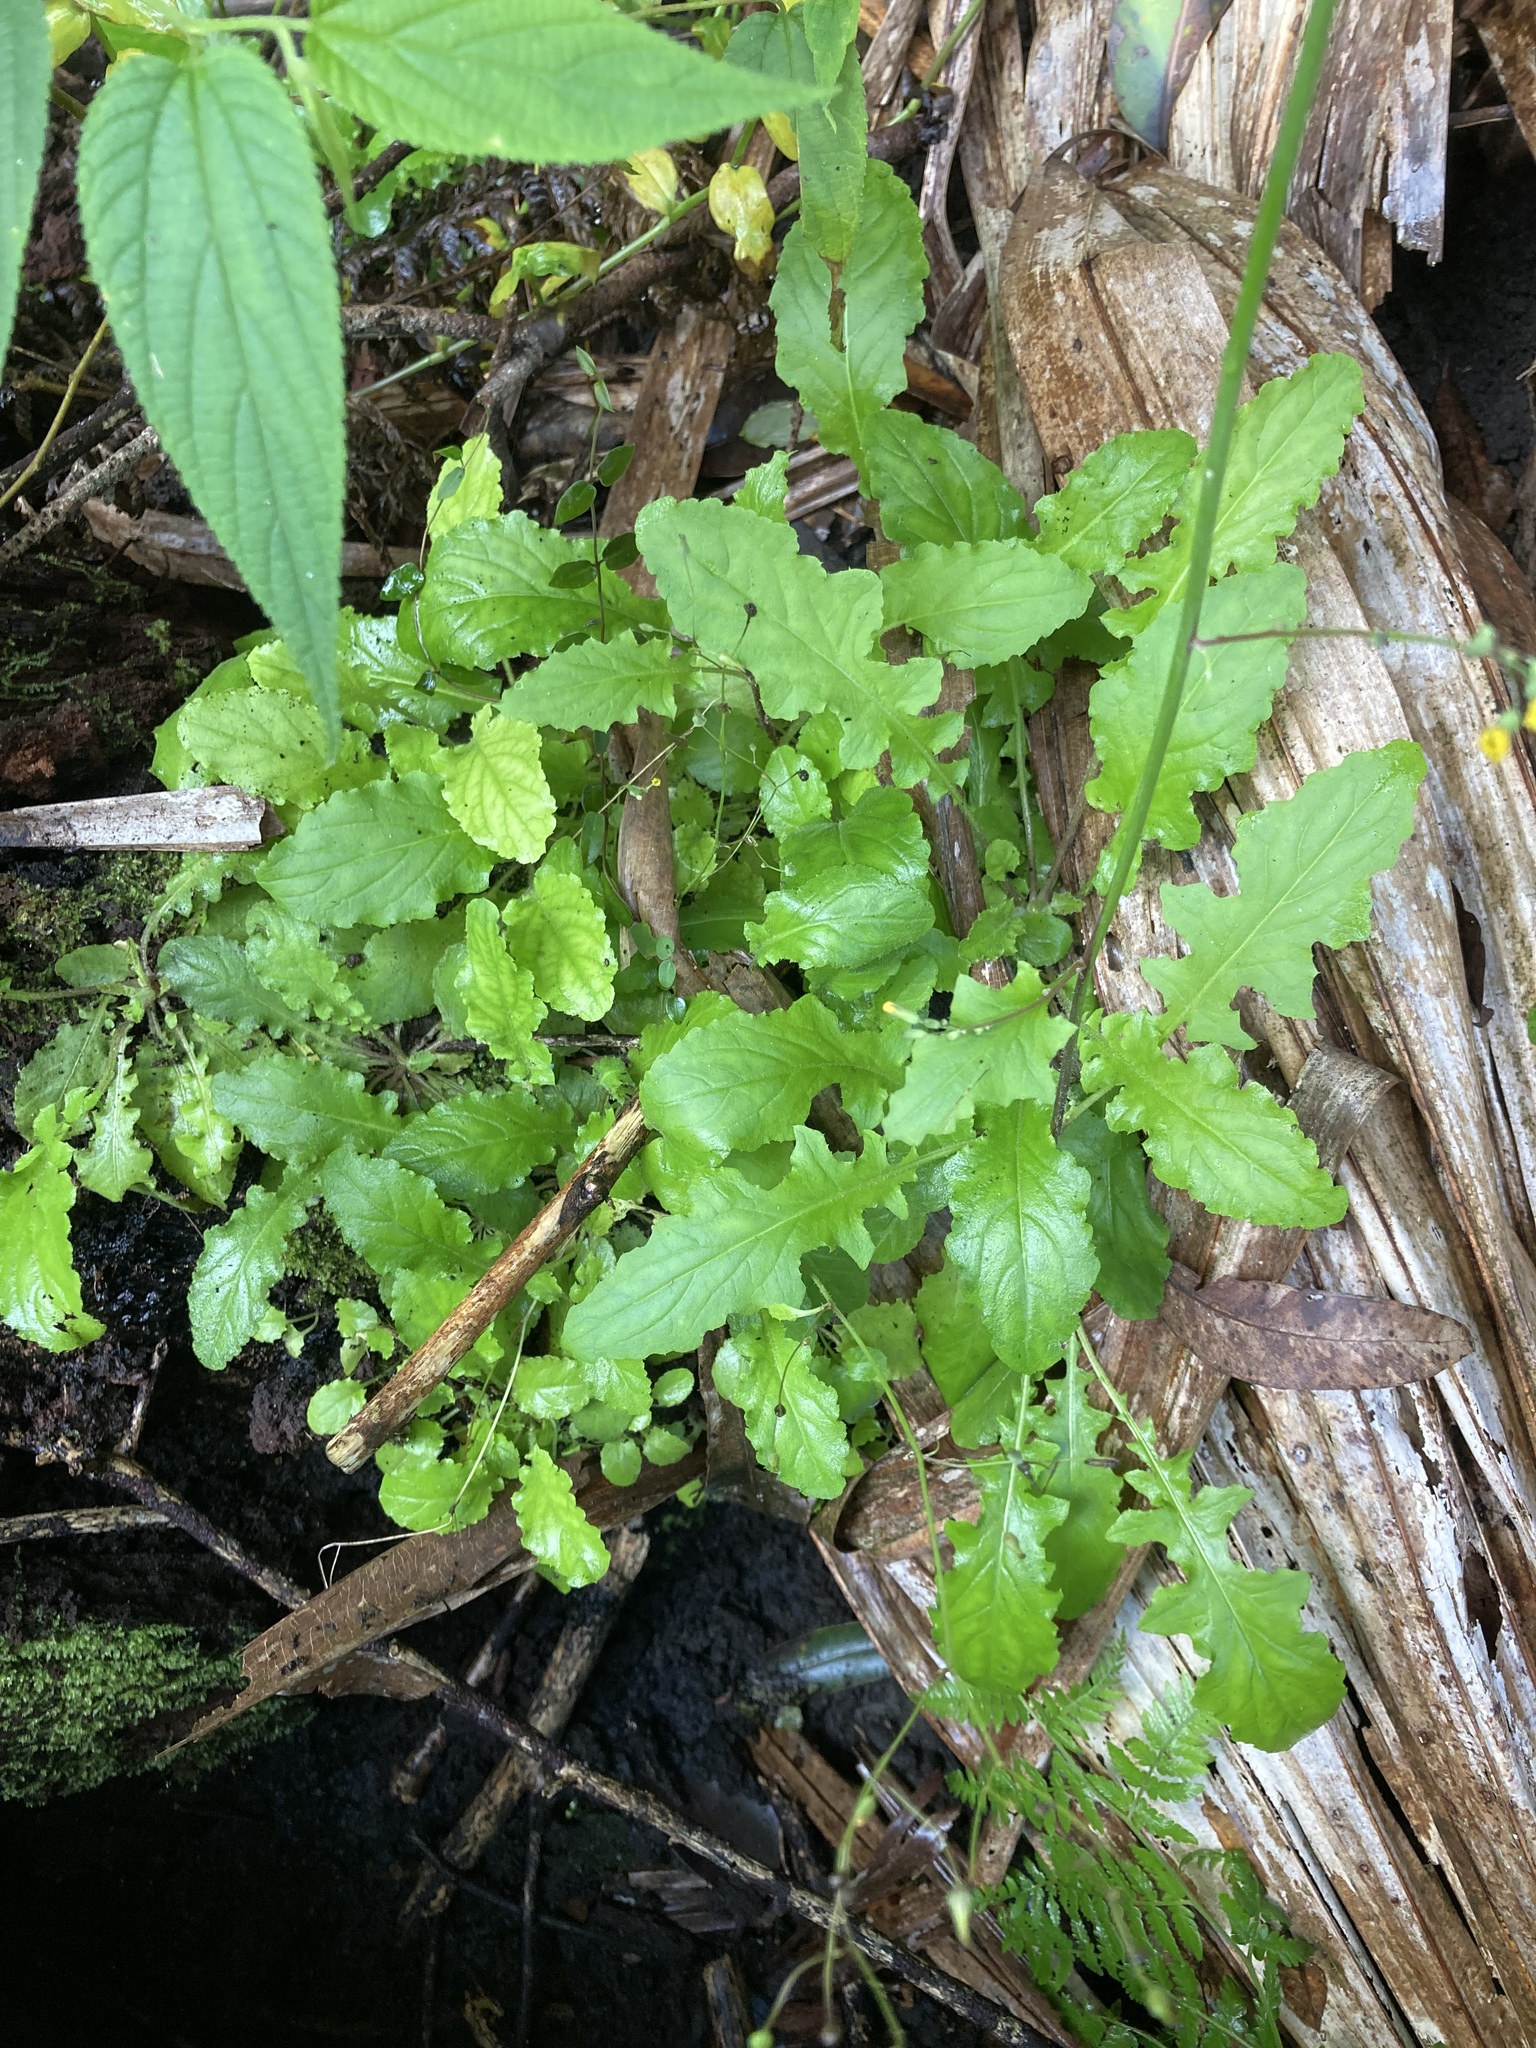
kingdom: Plantae
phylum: Tracheophyta
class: Magnoliopsida
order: Asterales
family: Asteraceae
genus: Youngia
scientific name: Youngia japonica
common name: Oriental false hawksbeard
